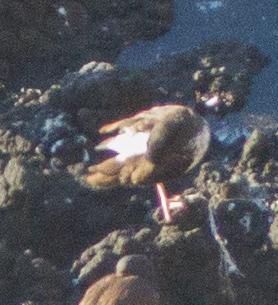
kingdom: Animalia
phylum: Chordata
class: Aves
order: Charadriiformes
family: Haematopodidae
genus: Haematopus
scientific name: Haematopus palliatus
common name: American oystercatcher
